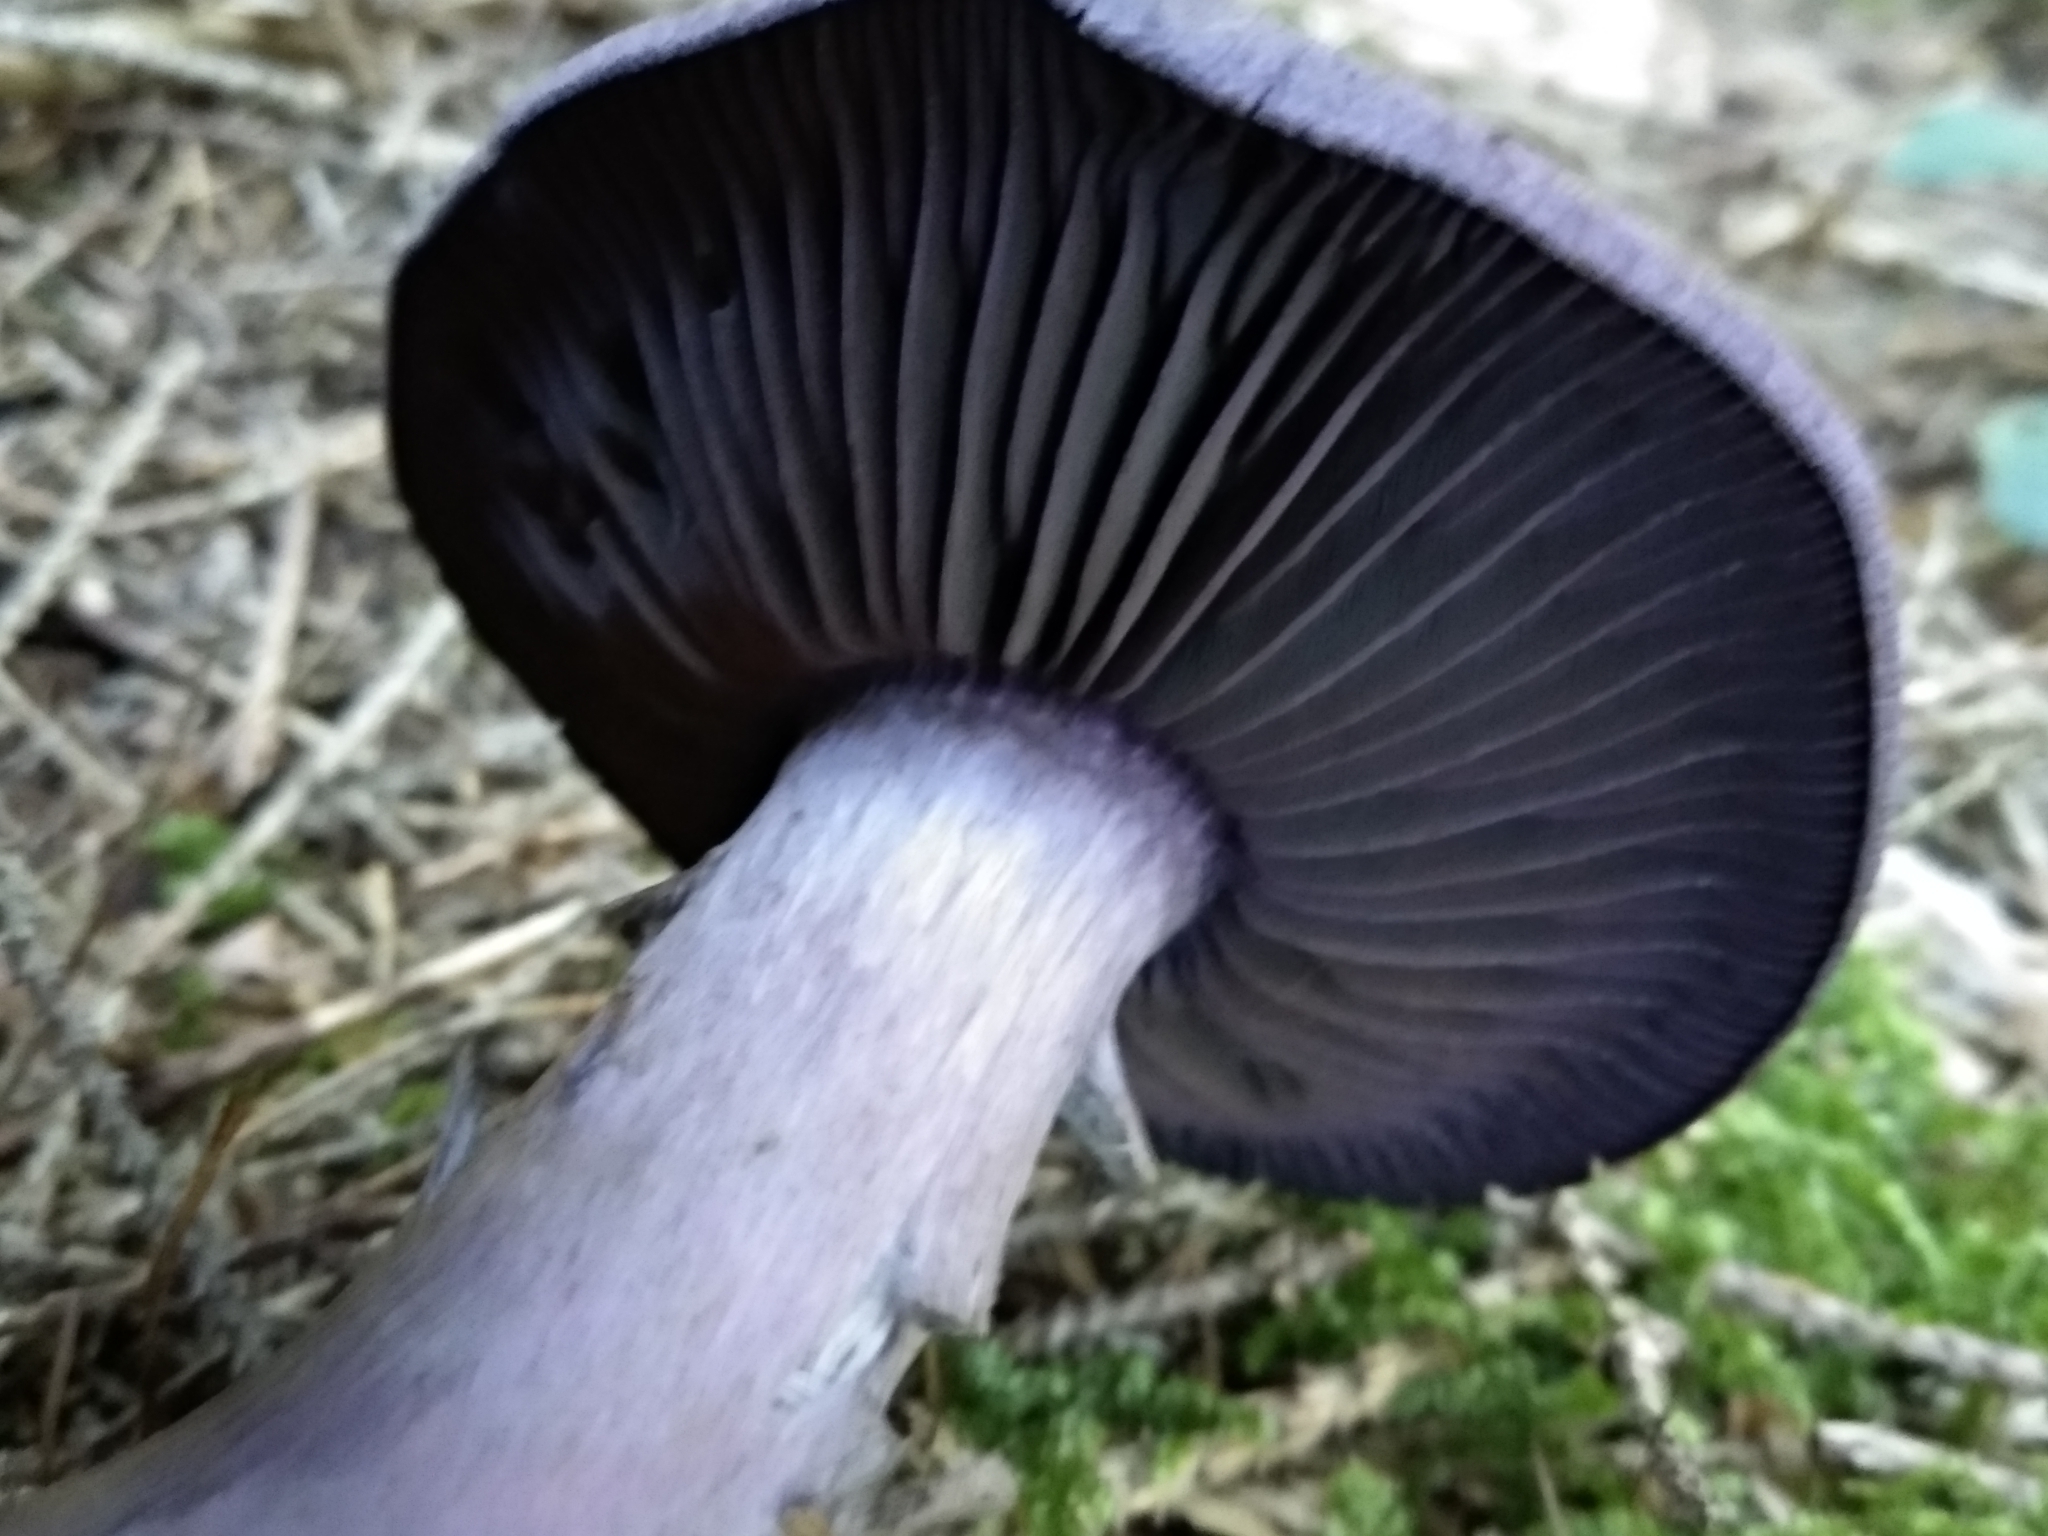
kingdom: Fungi
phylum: Basidiomycota
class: Agaricomycetes
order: Agaricales
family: Cortinariaceae
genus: Cortinarius
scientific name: Cortinarius violaceus
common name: Violet webcap
